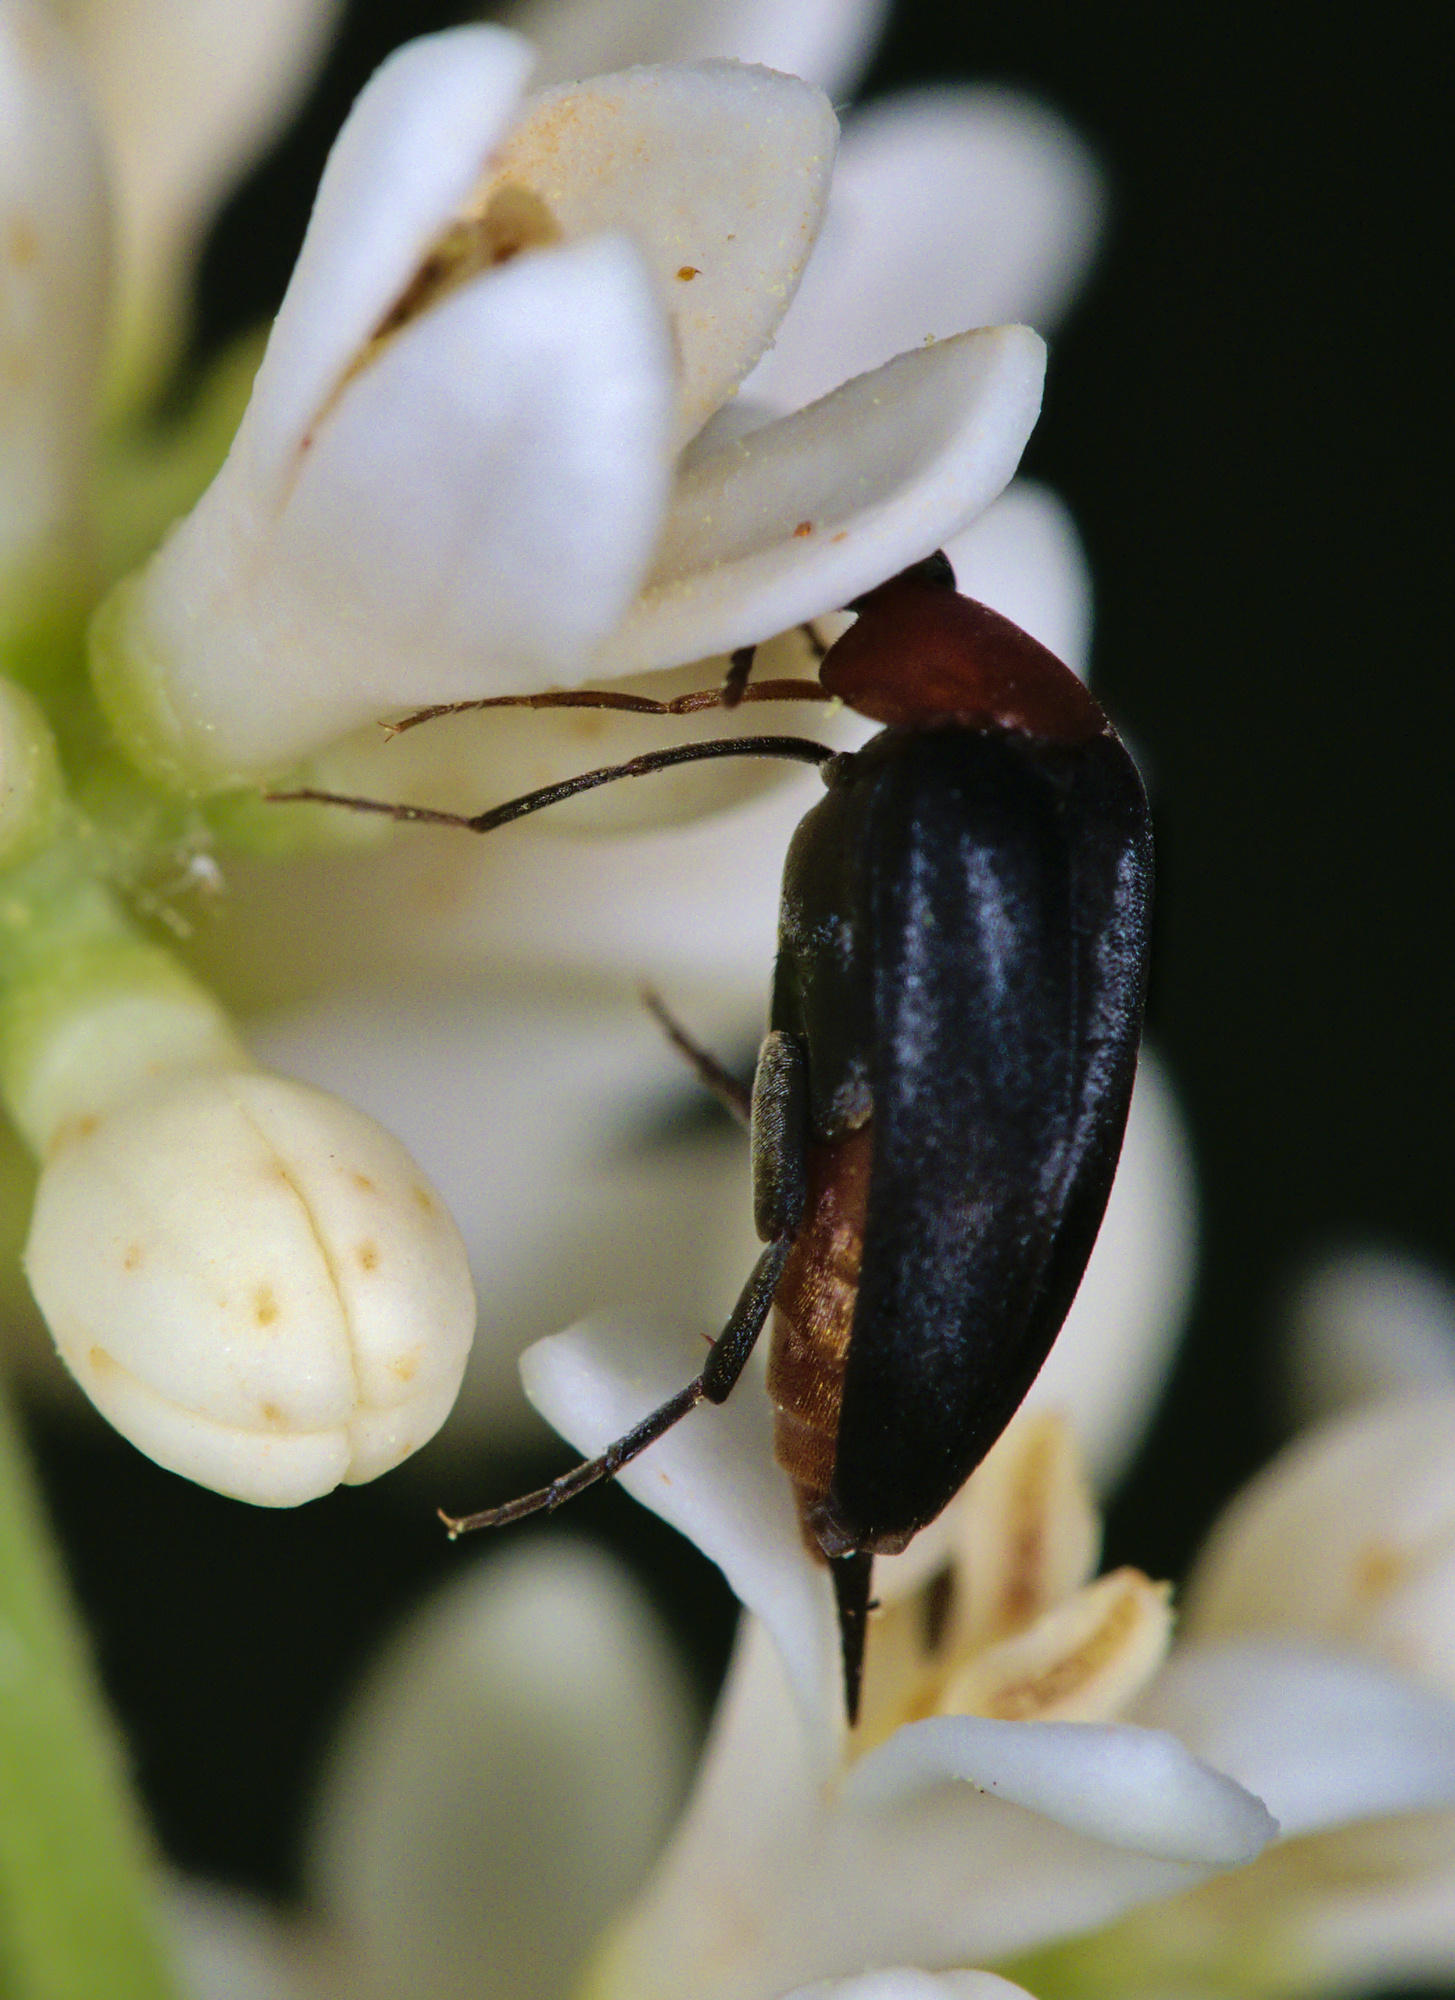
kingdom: Animalia
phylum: Arthropoda
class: Insecta
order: Coleoptera
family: Mordellidae
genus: Mordellochroa
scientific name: Mordellochroa abdominalis
